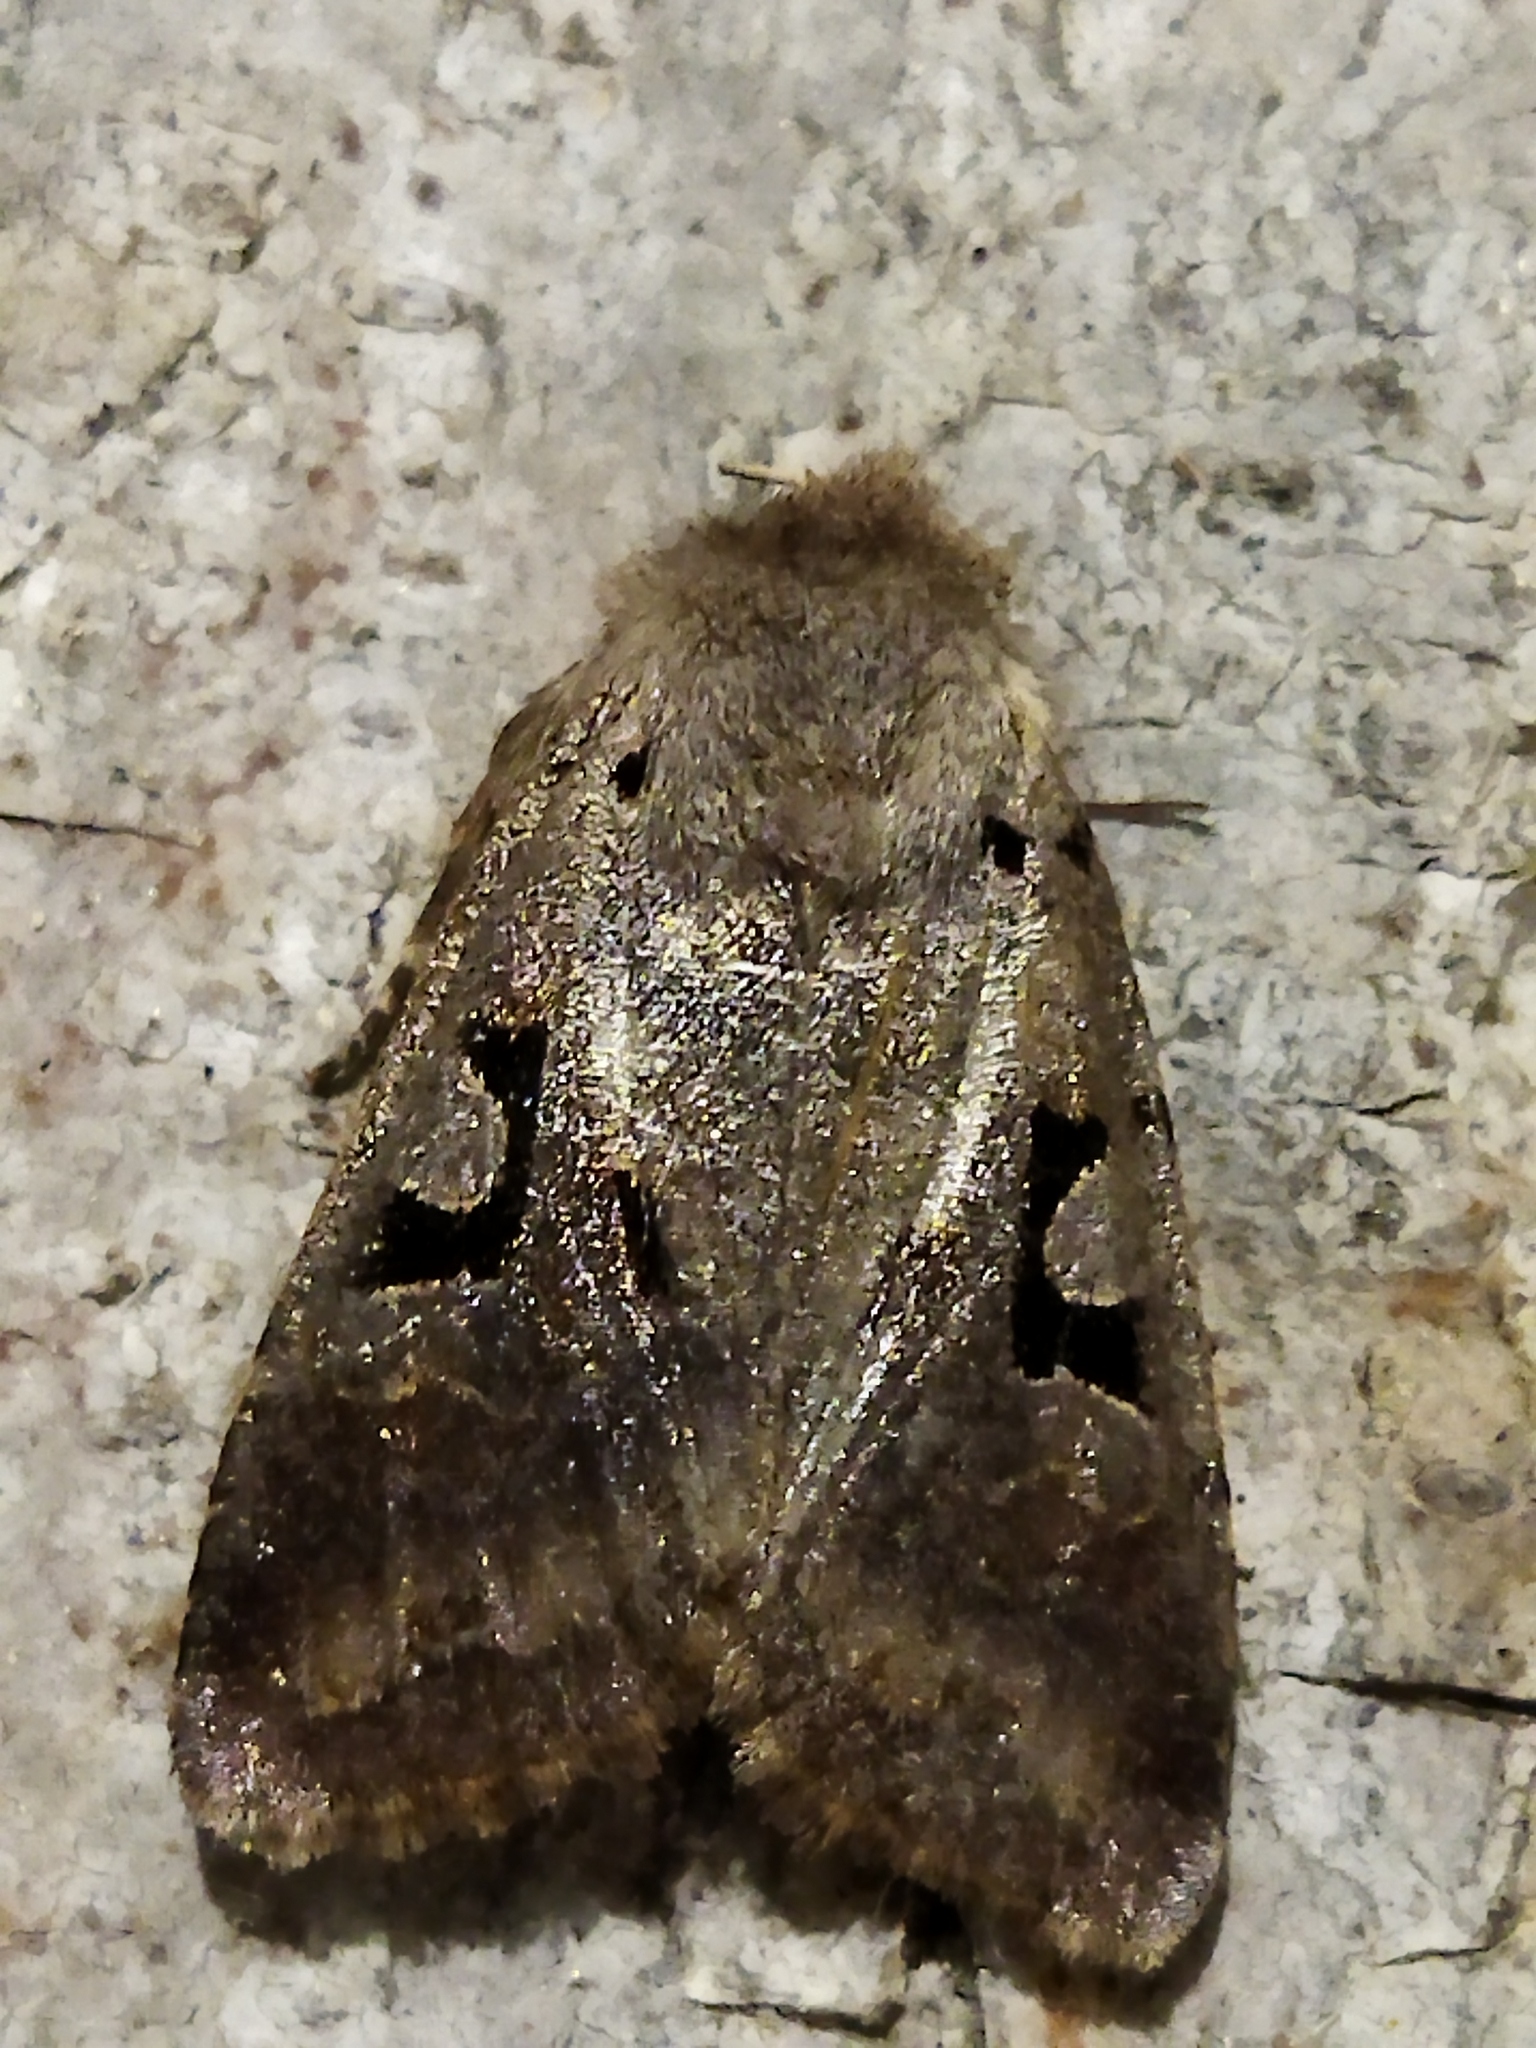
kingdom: Animalia
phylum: Arthropoda
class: Insecta
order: Lepidoptera
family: Noctuidae
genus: Orthosia
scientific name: Orthosia gothica
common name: Hebrew character
